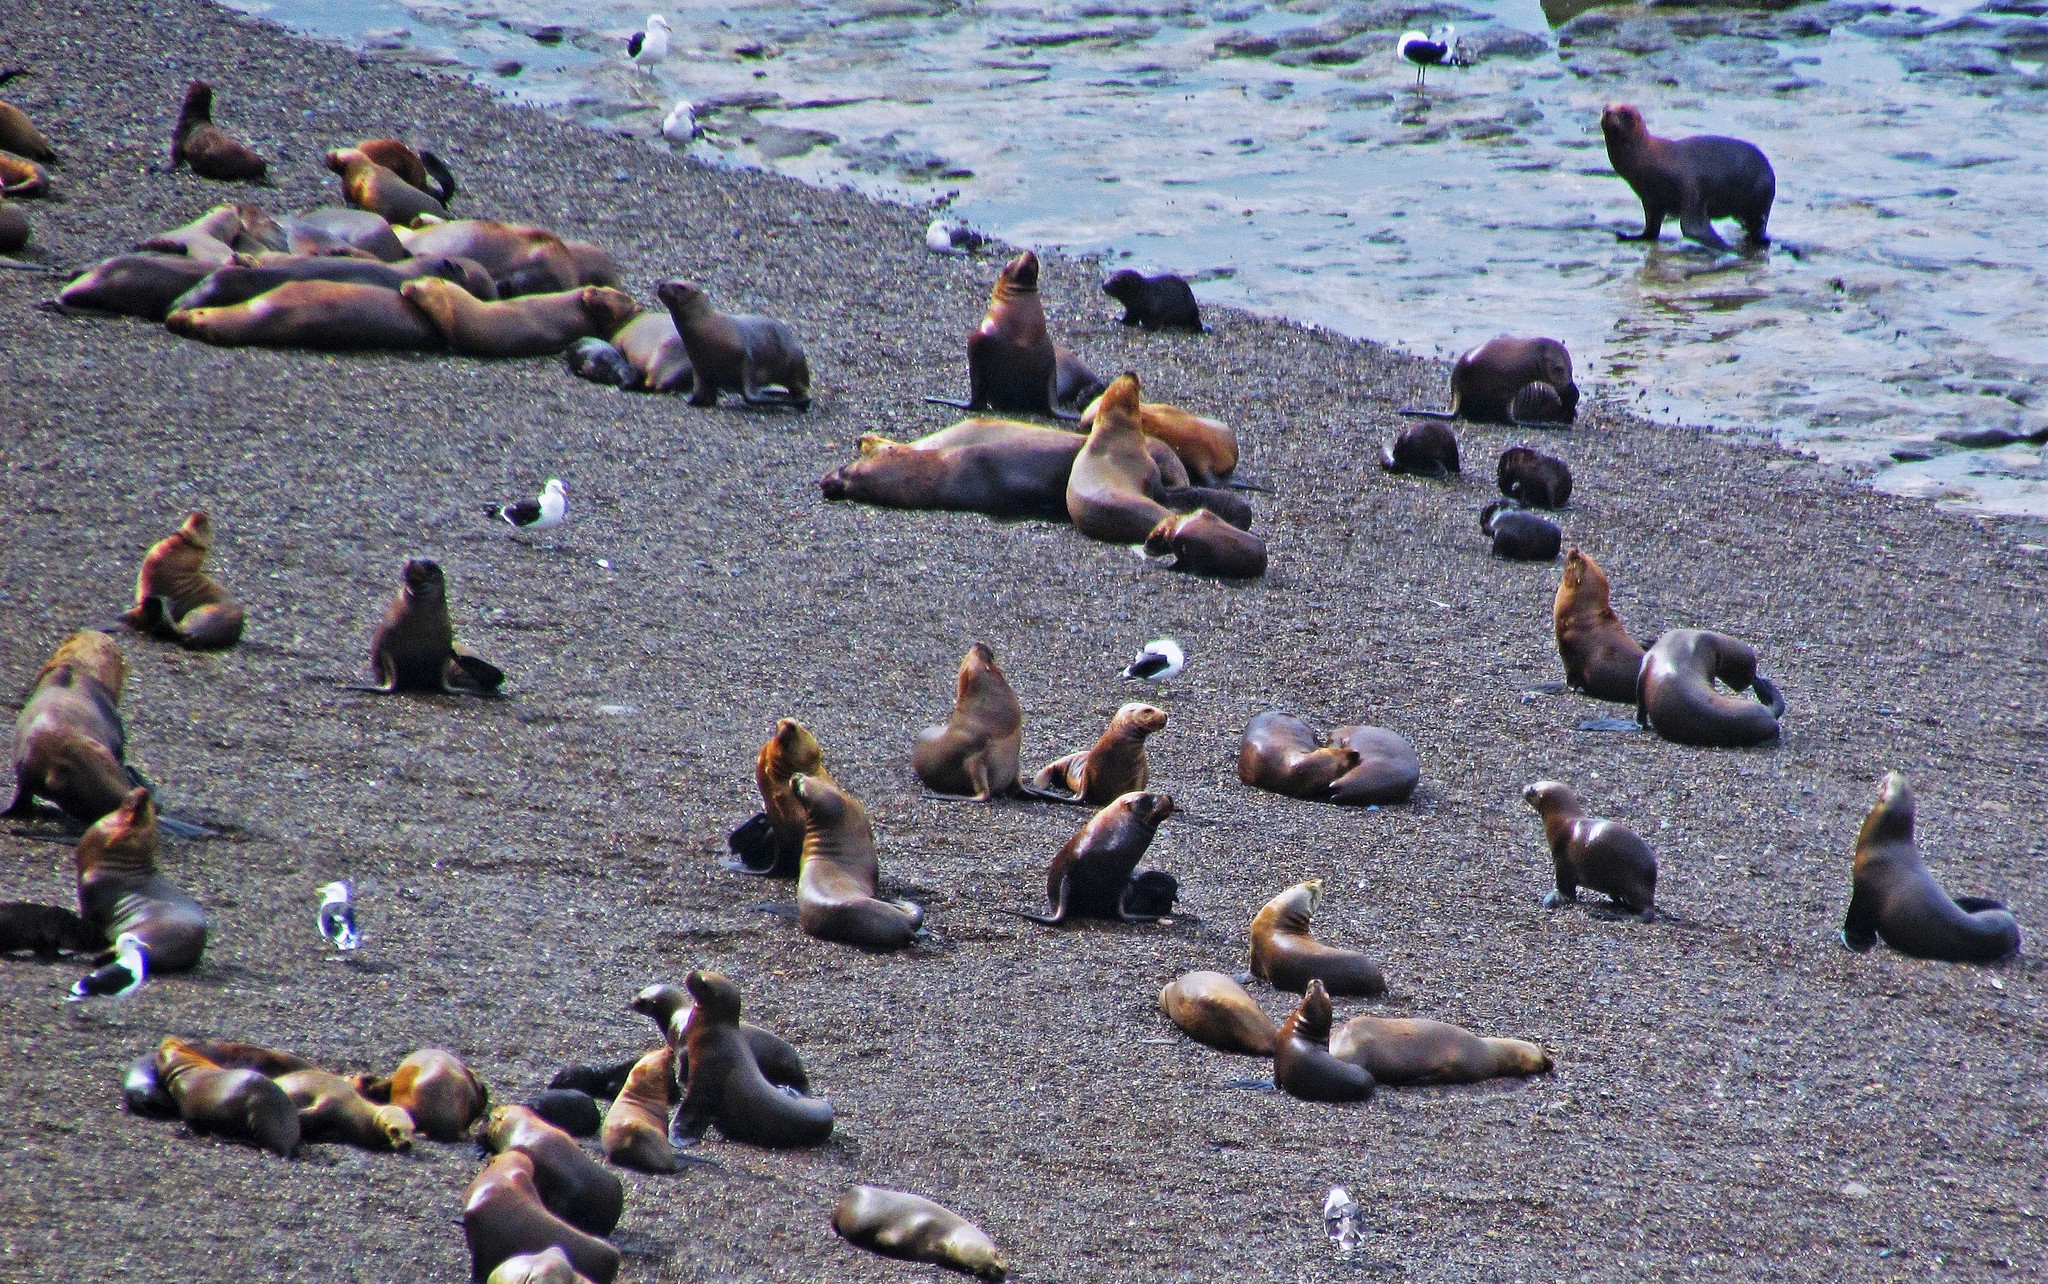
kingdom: Animalia
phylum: Chordata
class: Mammalia
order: Carnivora
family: Otariidae
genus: Otaria
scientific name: Otaria byronia
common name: South american sea lion
